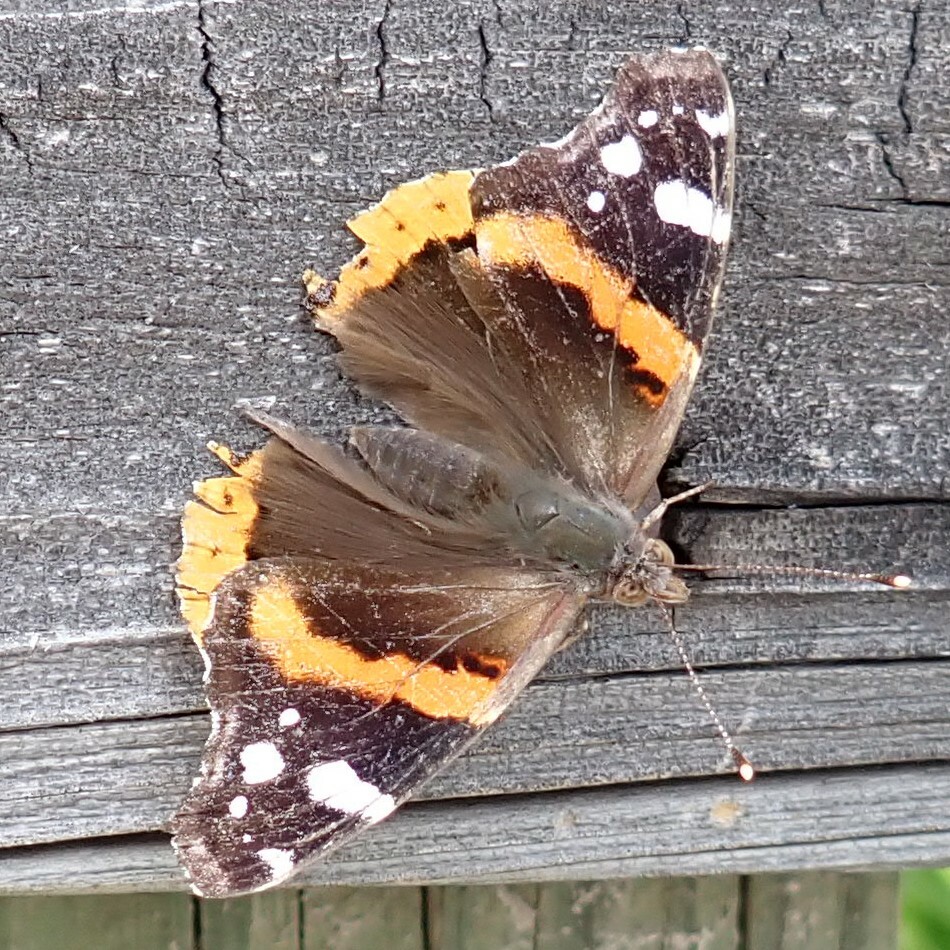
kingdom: Animalia
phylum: Arthropoda
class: Insecta
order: Lepidoptera
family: Nymphalidae
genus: Vanessa
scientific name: Vanessa atalanta
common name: Red admiral
